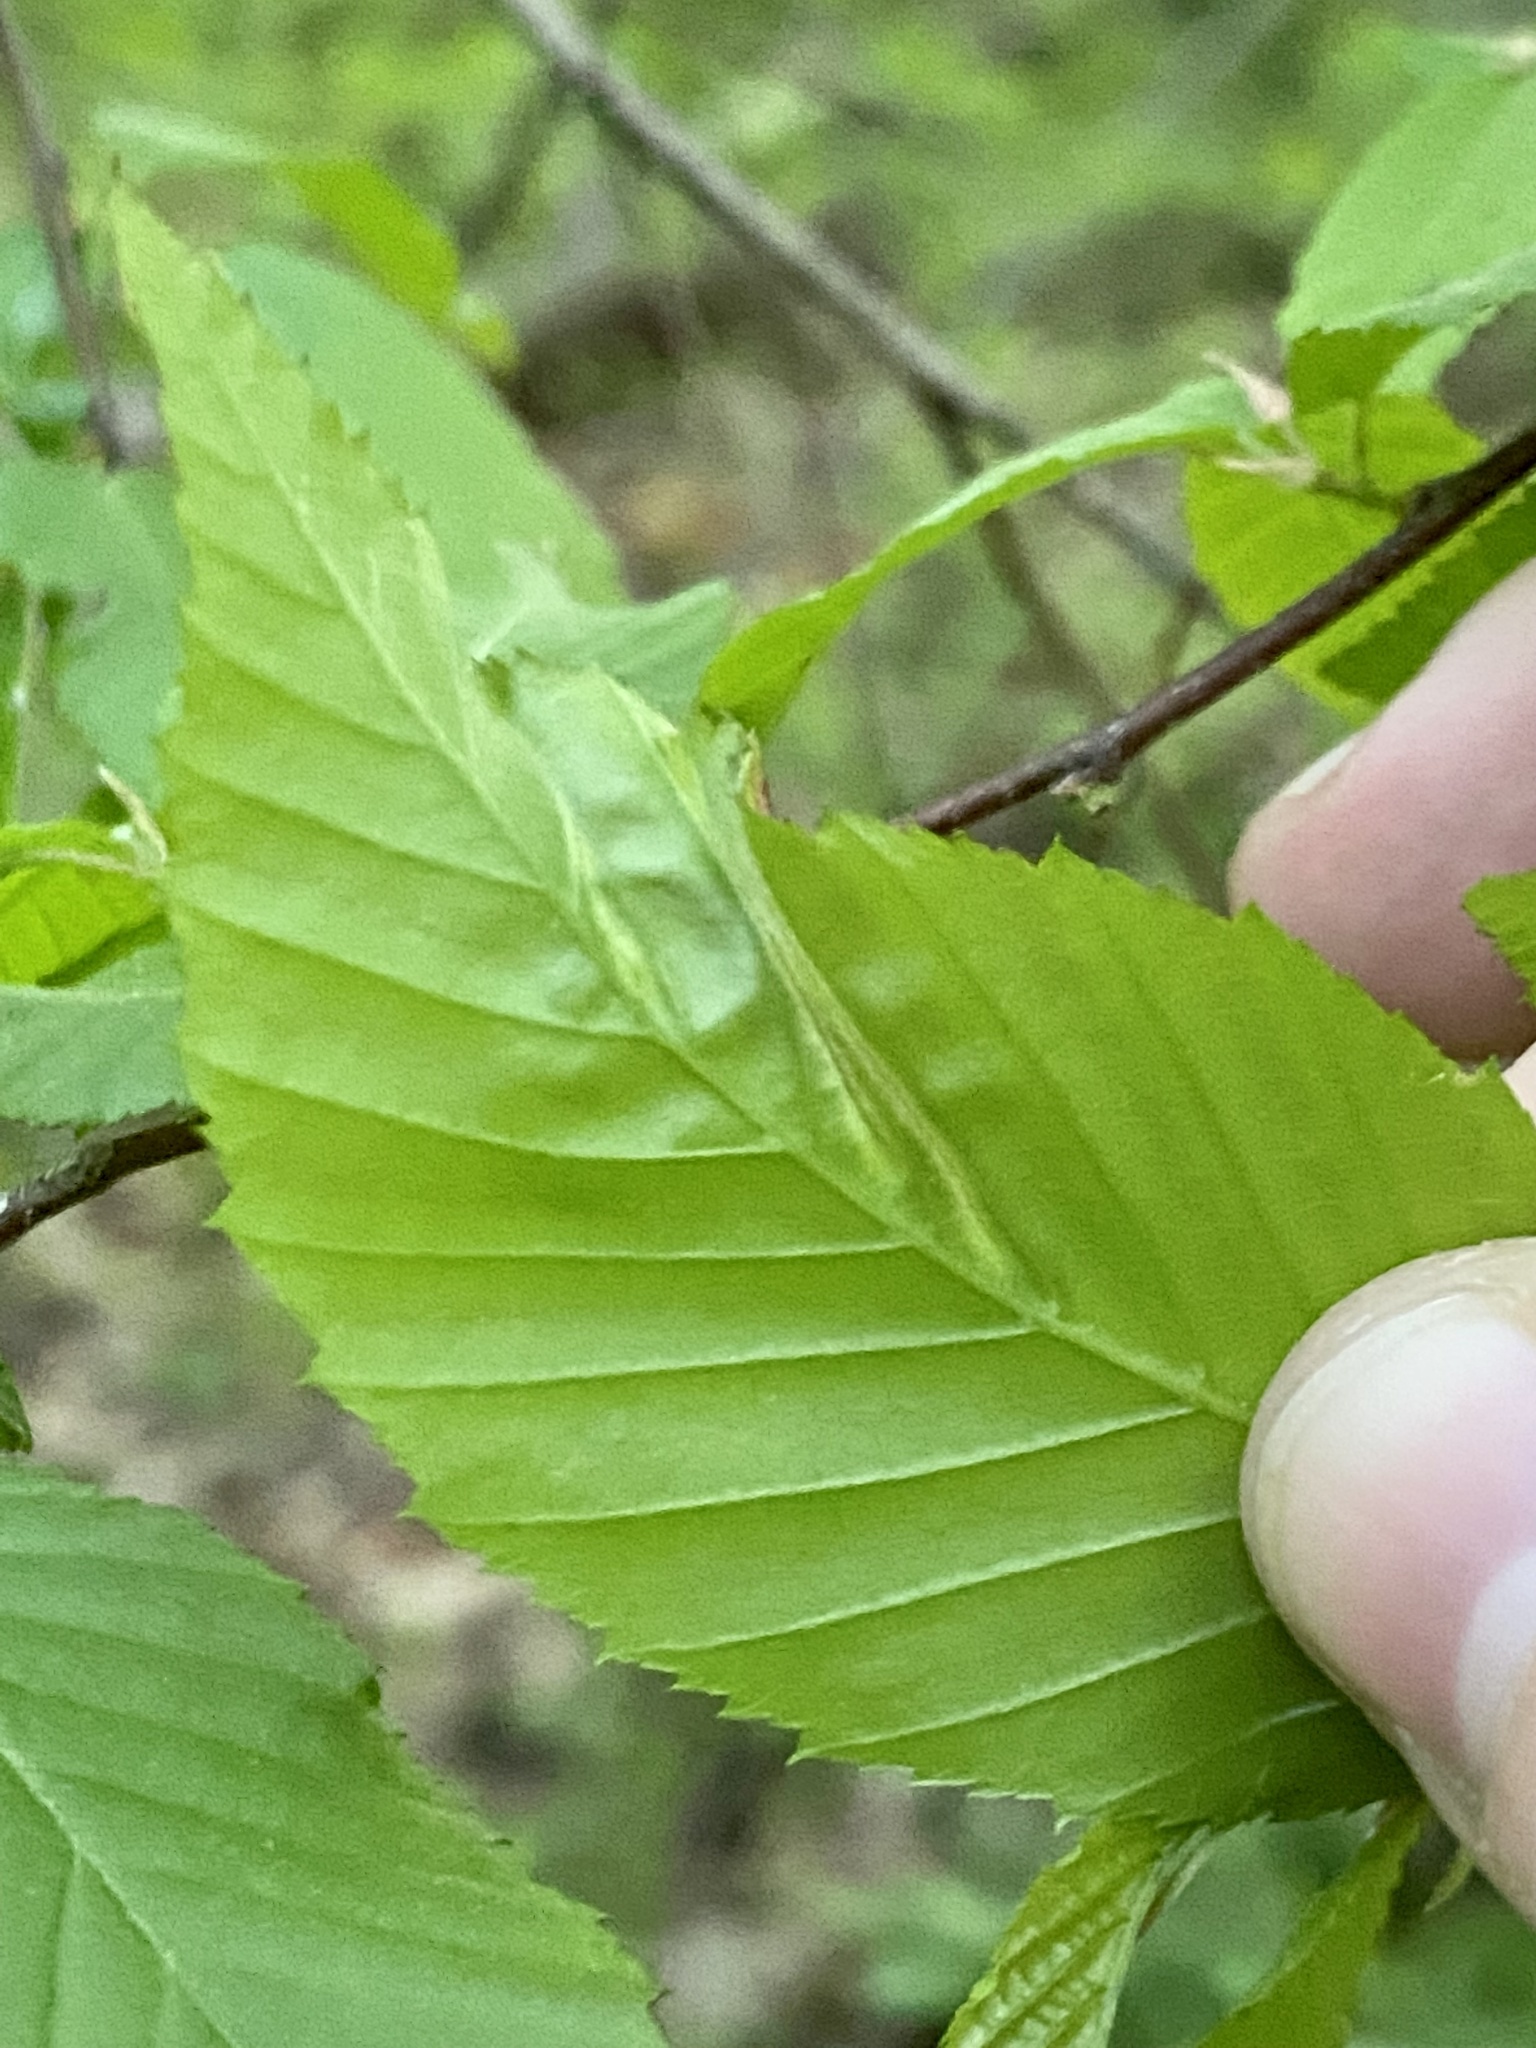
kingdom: Animalia
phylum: Arthropoda
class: Insecta
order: Diptera
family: Cecidomyiidae
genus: Dasineura
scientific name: Dasineura pudibunda
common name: Hornbeam leaf gall midge
